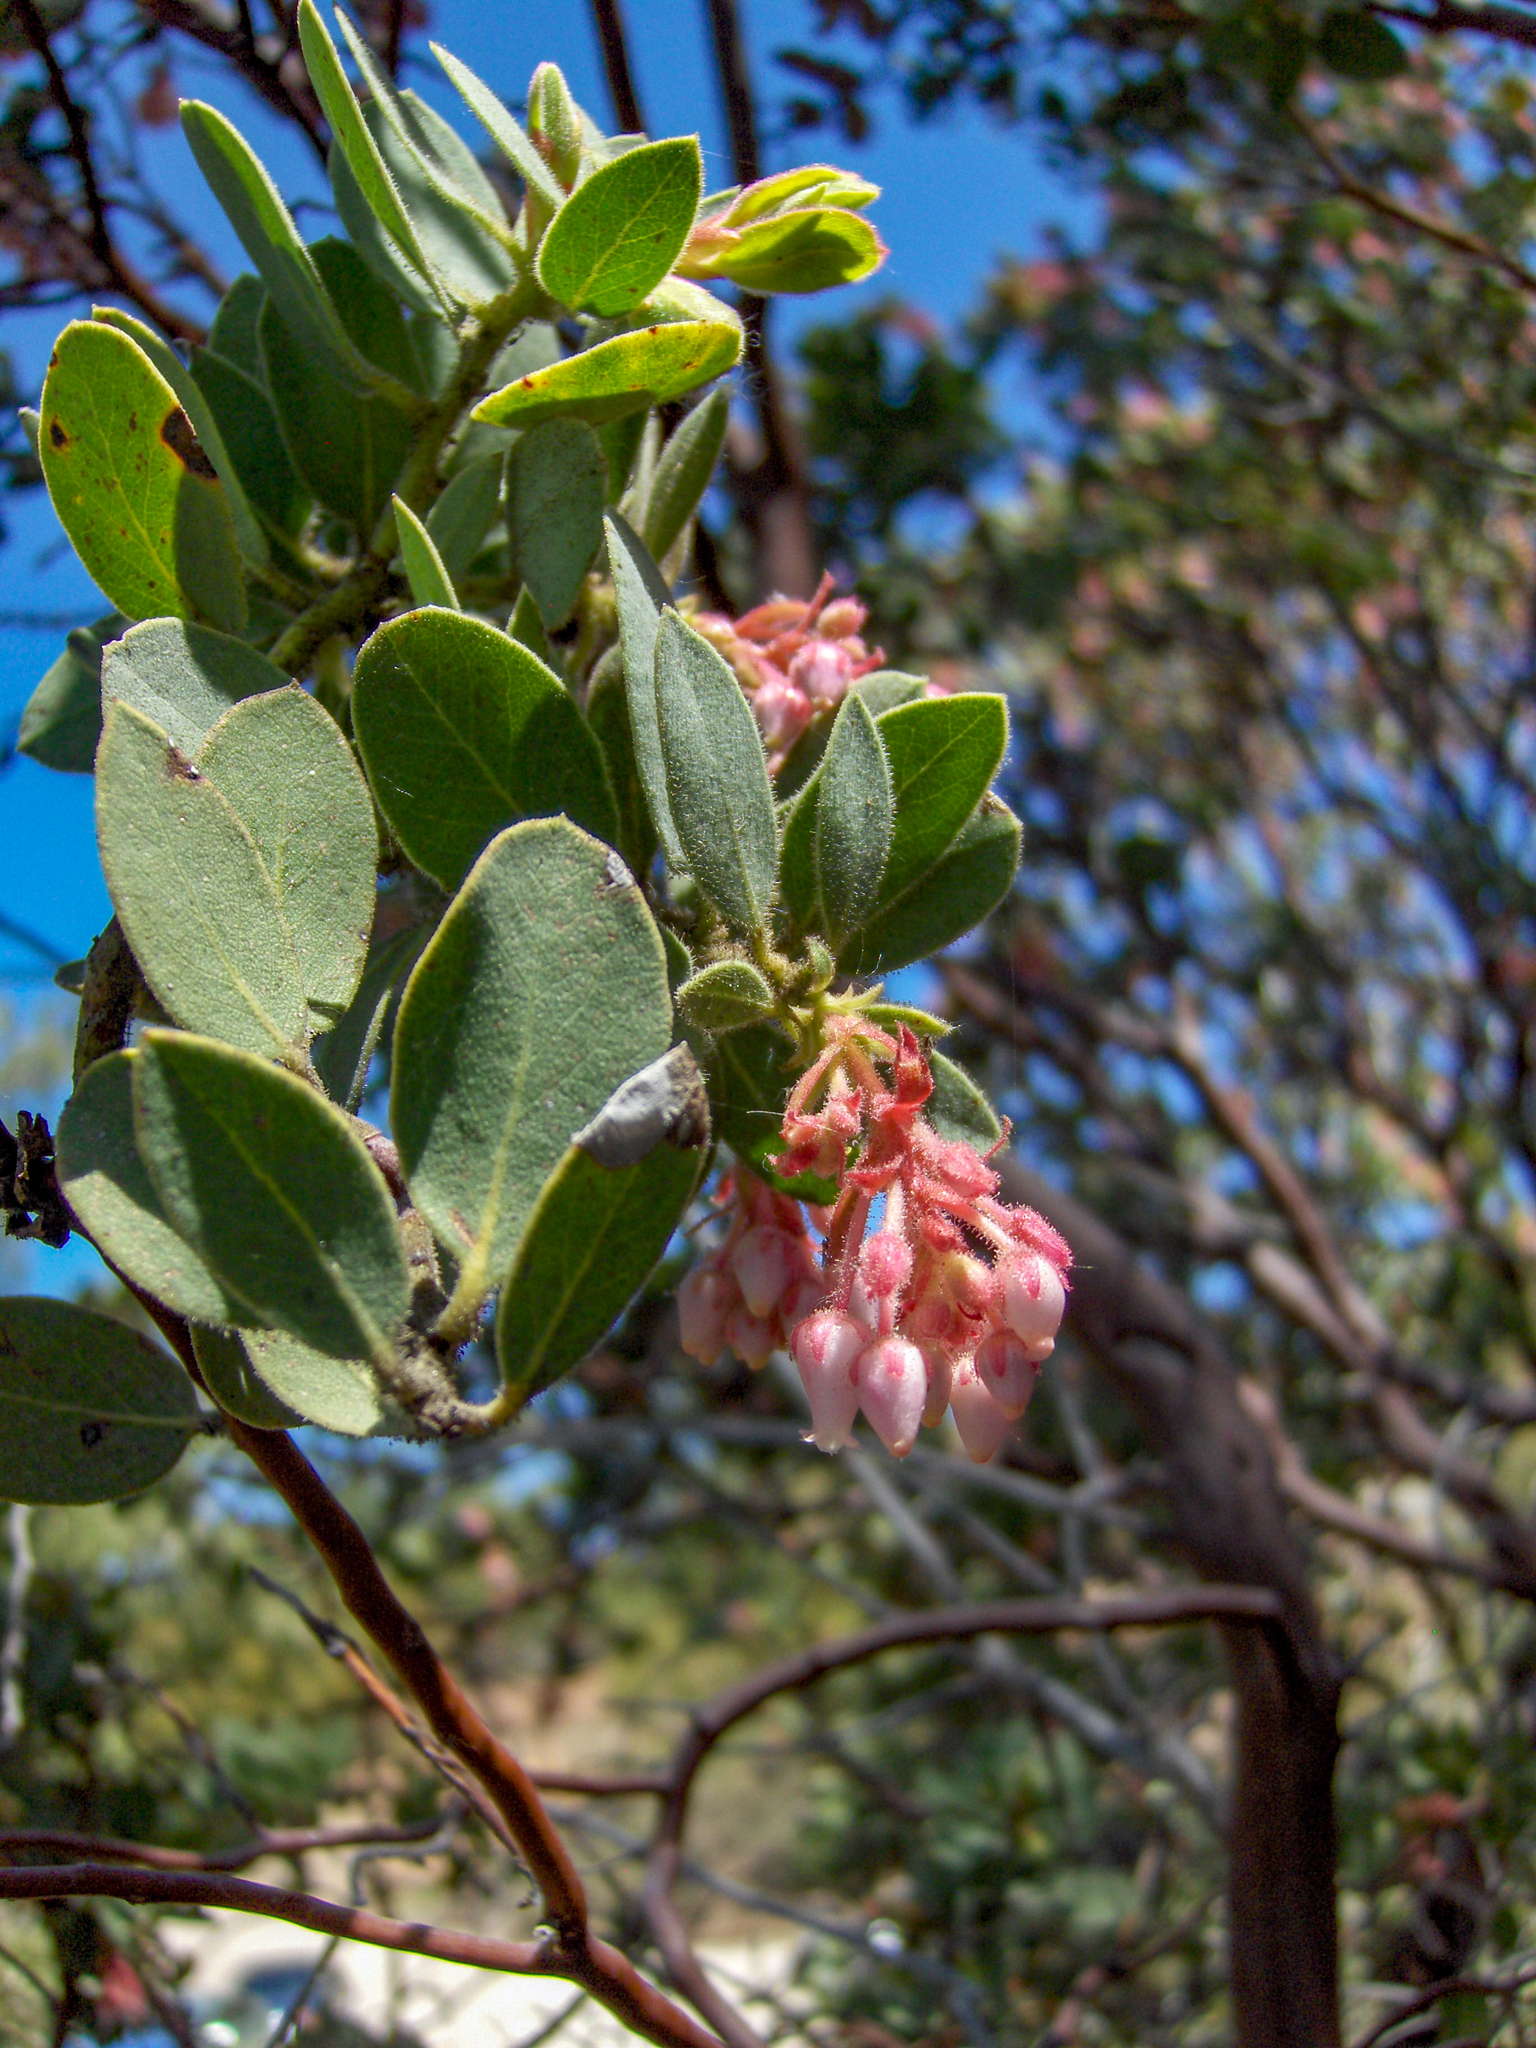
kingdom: Plantae
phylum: Tracheophyta
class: Magnoliopsida
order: Ericales
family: Ericaceae
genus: Arctostaphylos
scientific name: Arctostaphylos pringlei
